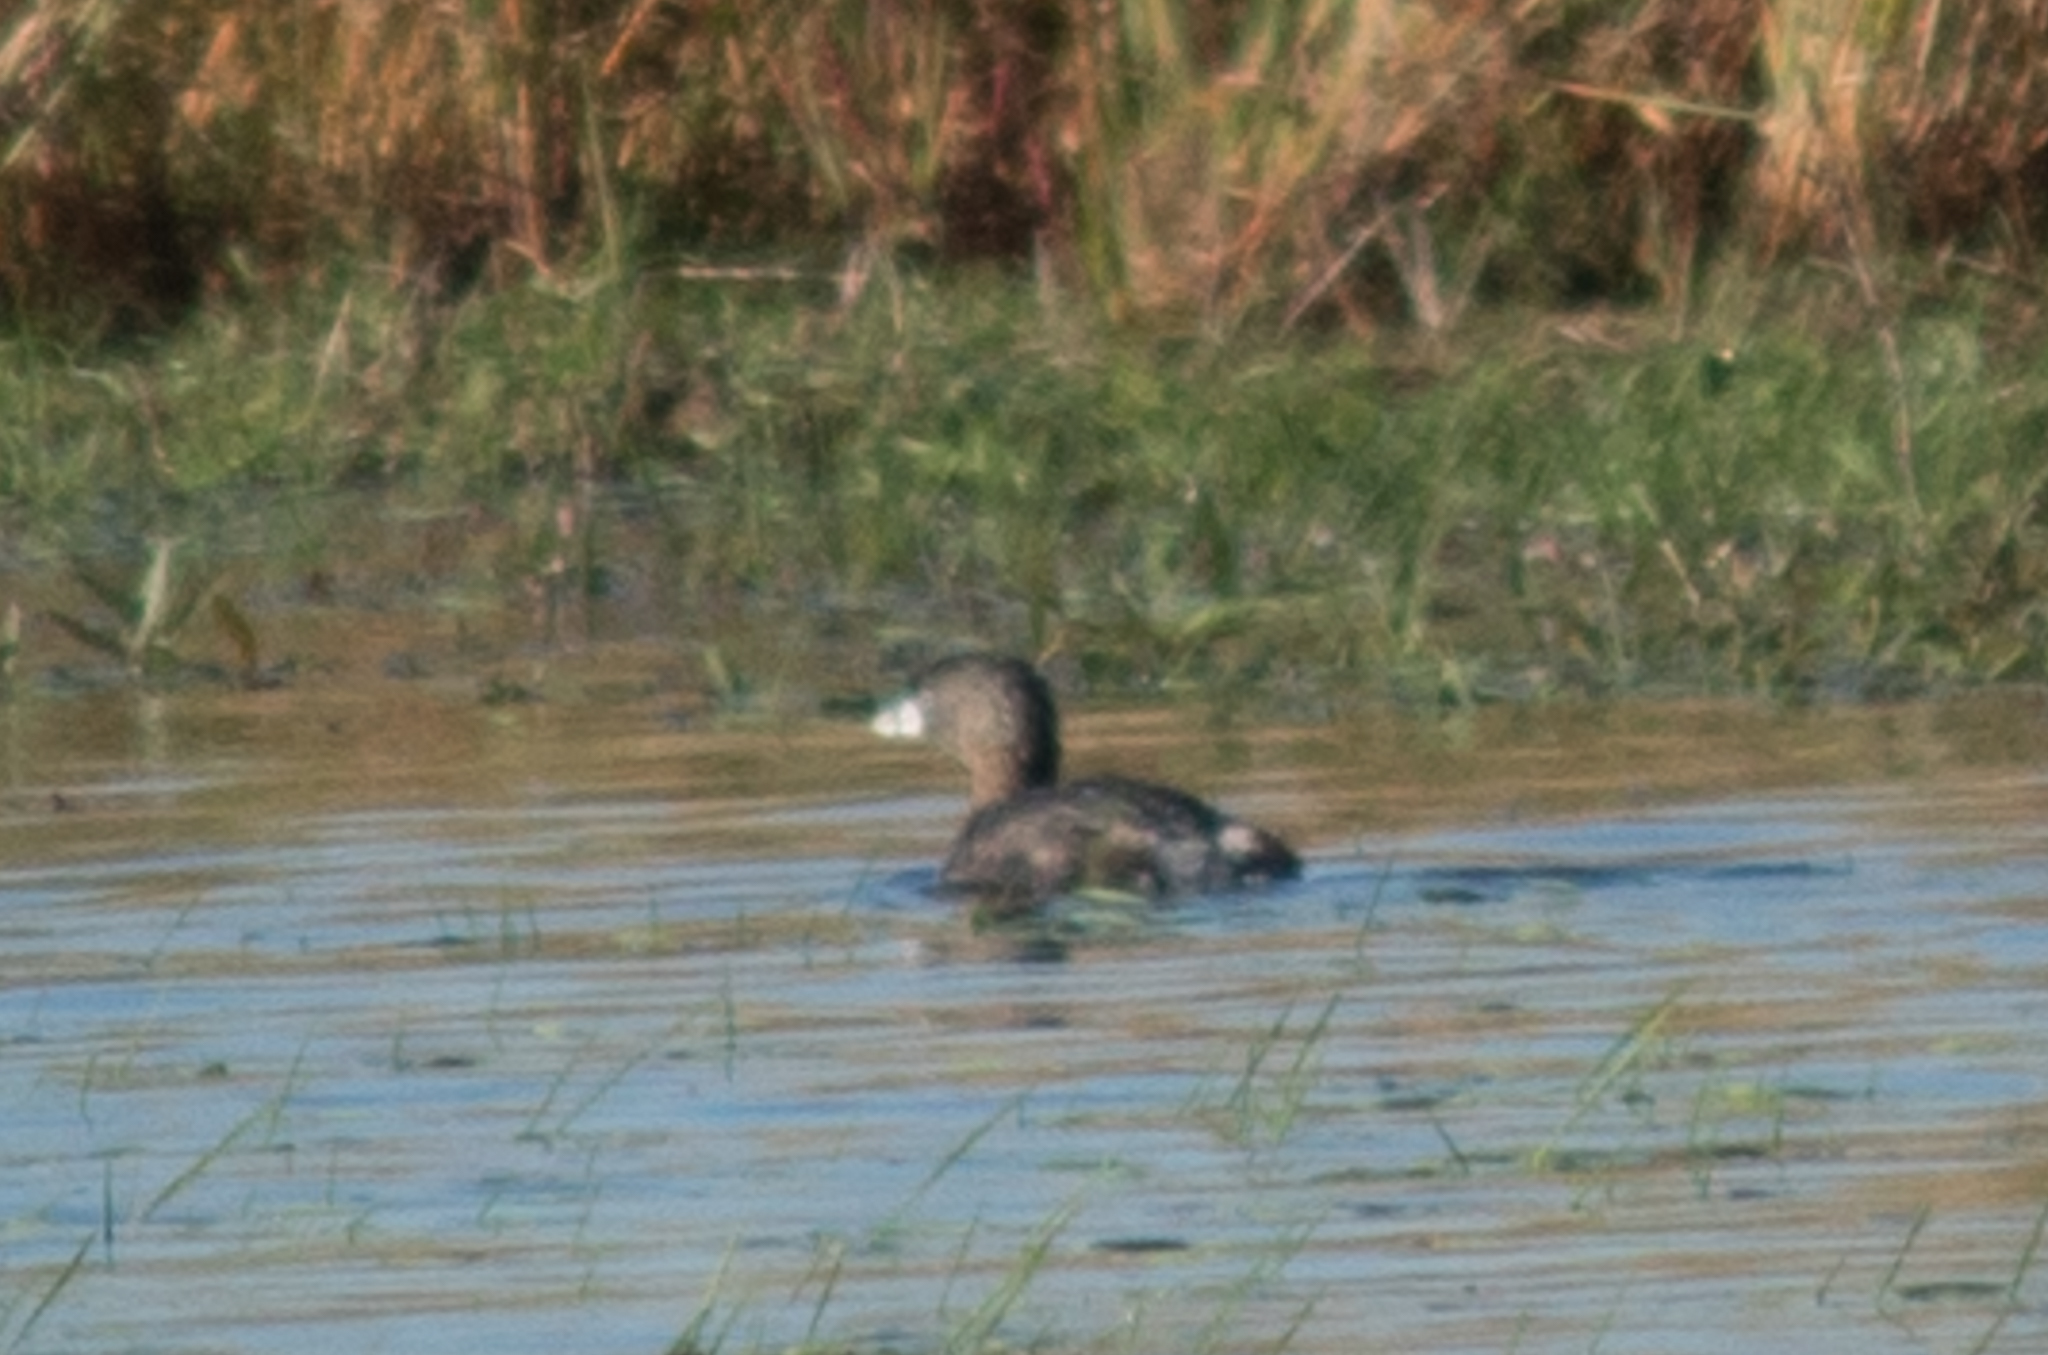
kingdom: Animalia
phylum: Chordata
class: Aves
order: Podicipediformes
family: Podicipedidae
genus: Podilymbus
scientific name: Podilymbus podiceps
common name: Pied-billed grebe
